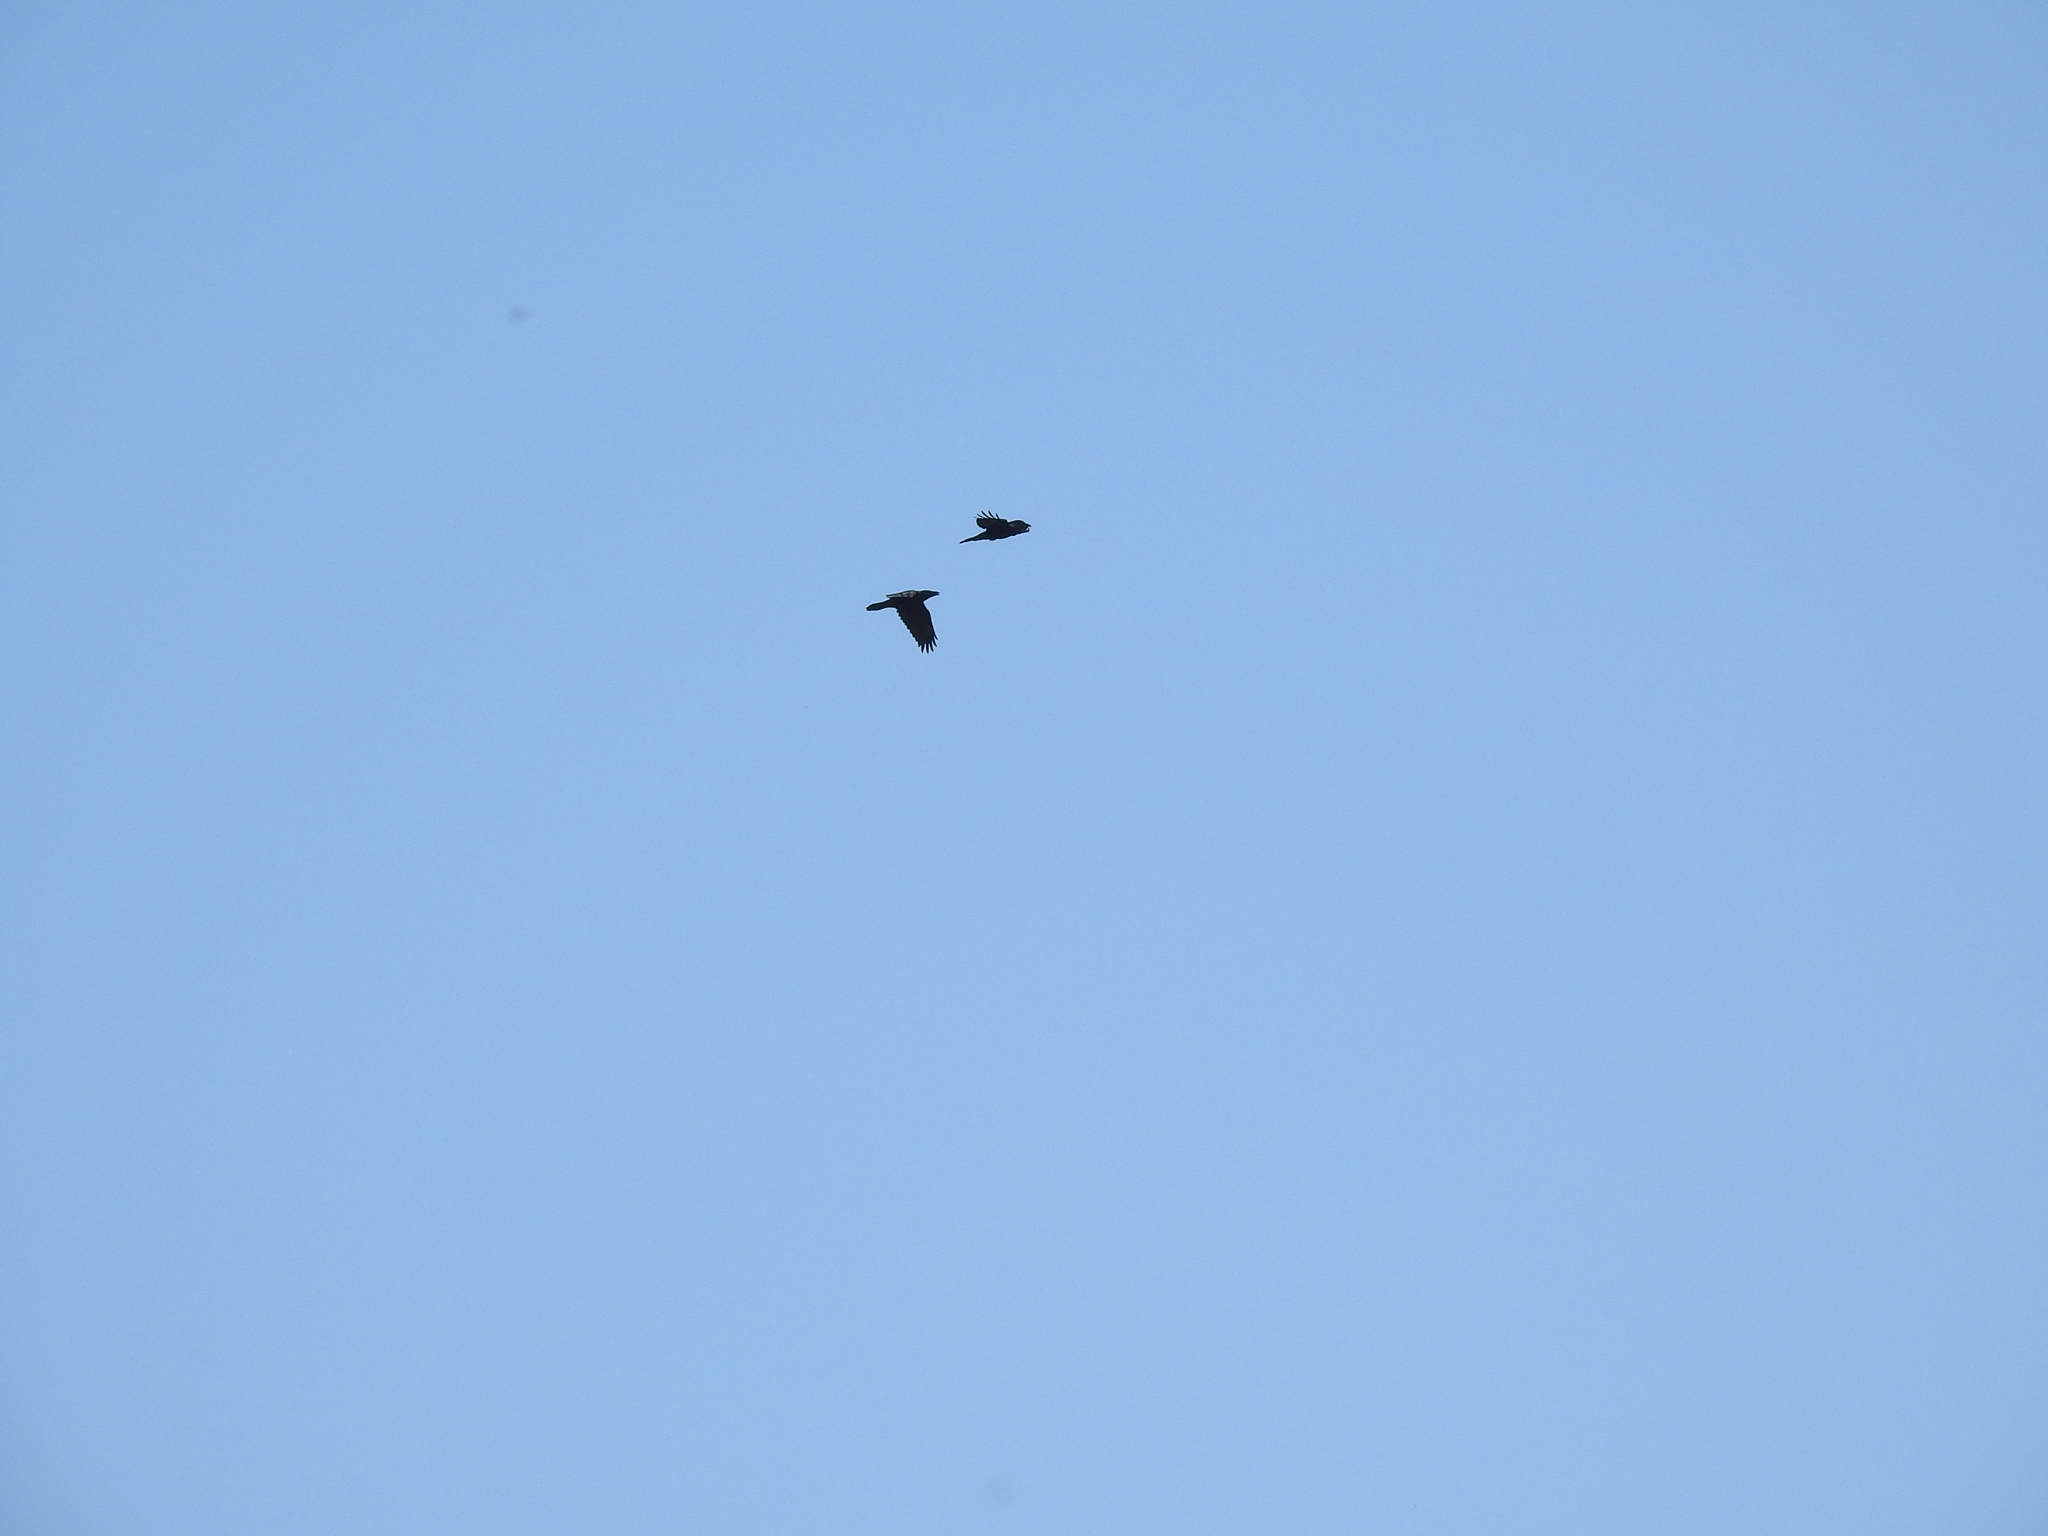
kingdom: Animalia
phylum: Chordata
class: Aves
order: Passeriformes
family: Corvidae
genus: Corvus
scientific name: Corvus corax
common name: Common raven
